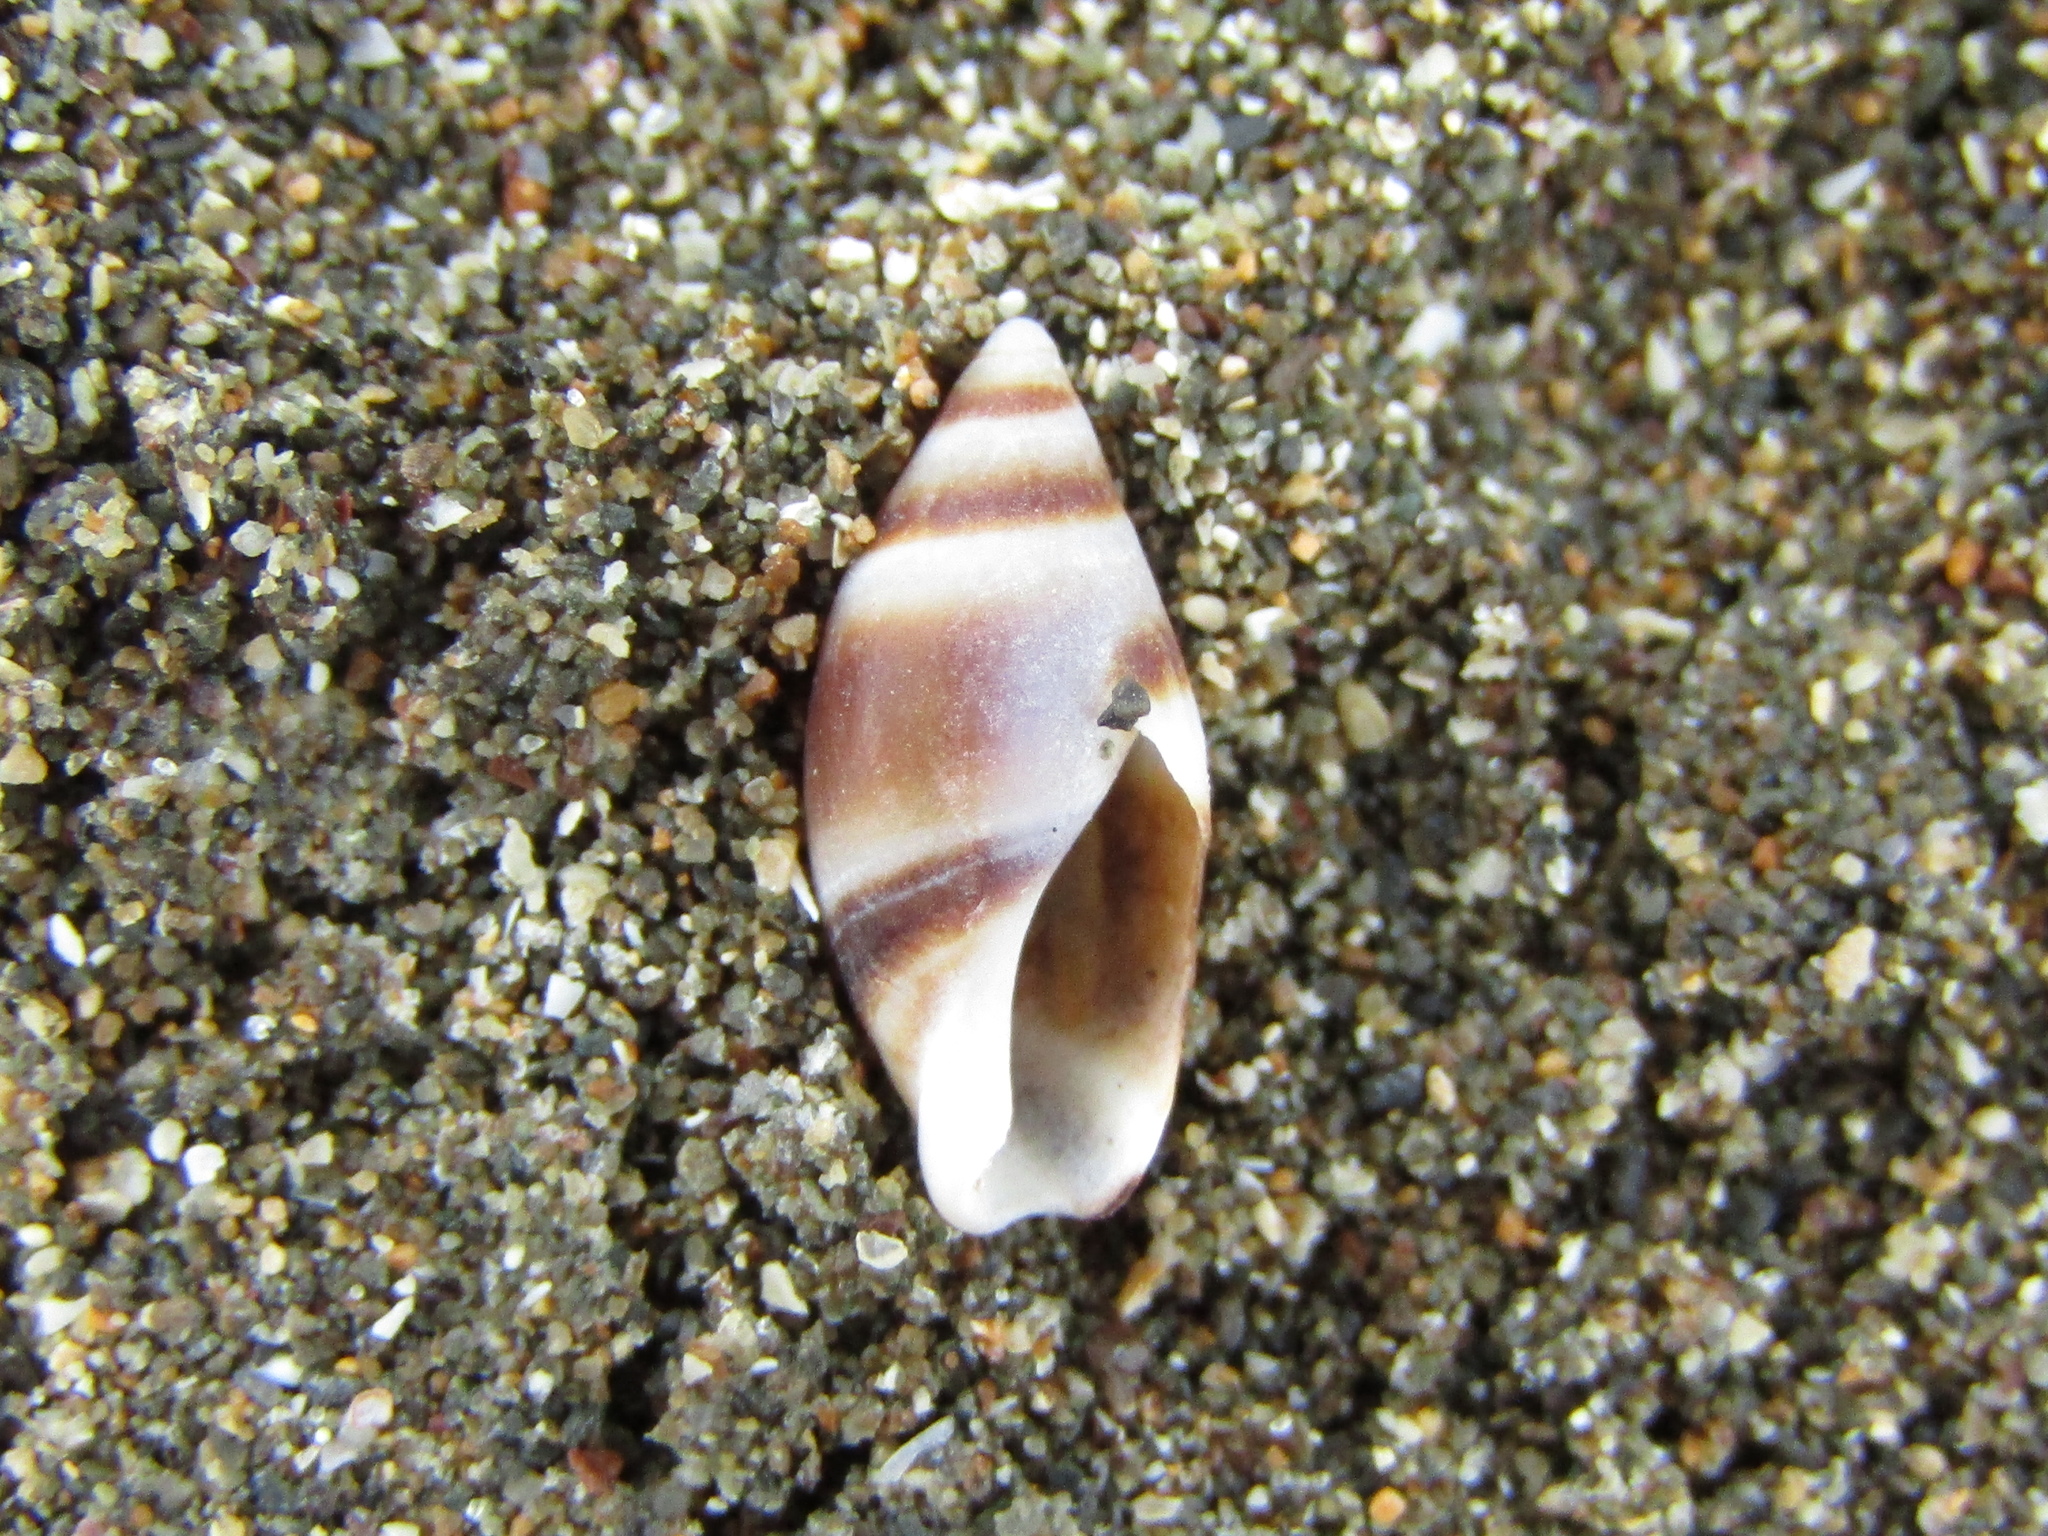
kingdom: Animalia
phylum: Mollusca
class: Gastropoda
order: Neogastropoda
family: Ancillariidae
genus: Amalda
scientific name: Amalda northlandica
